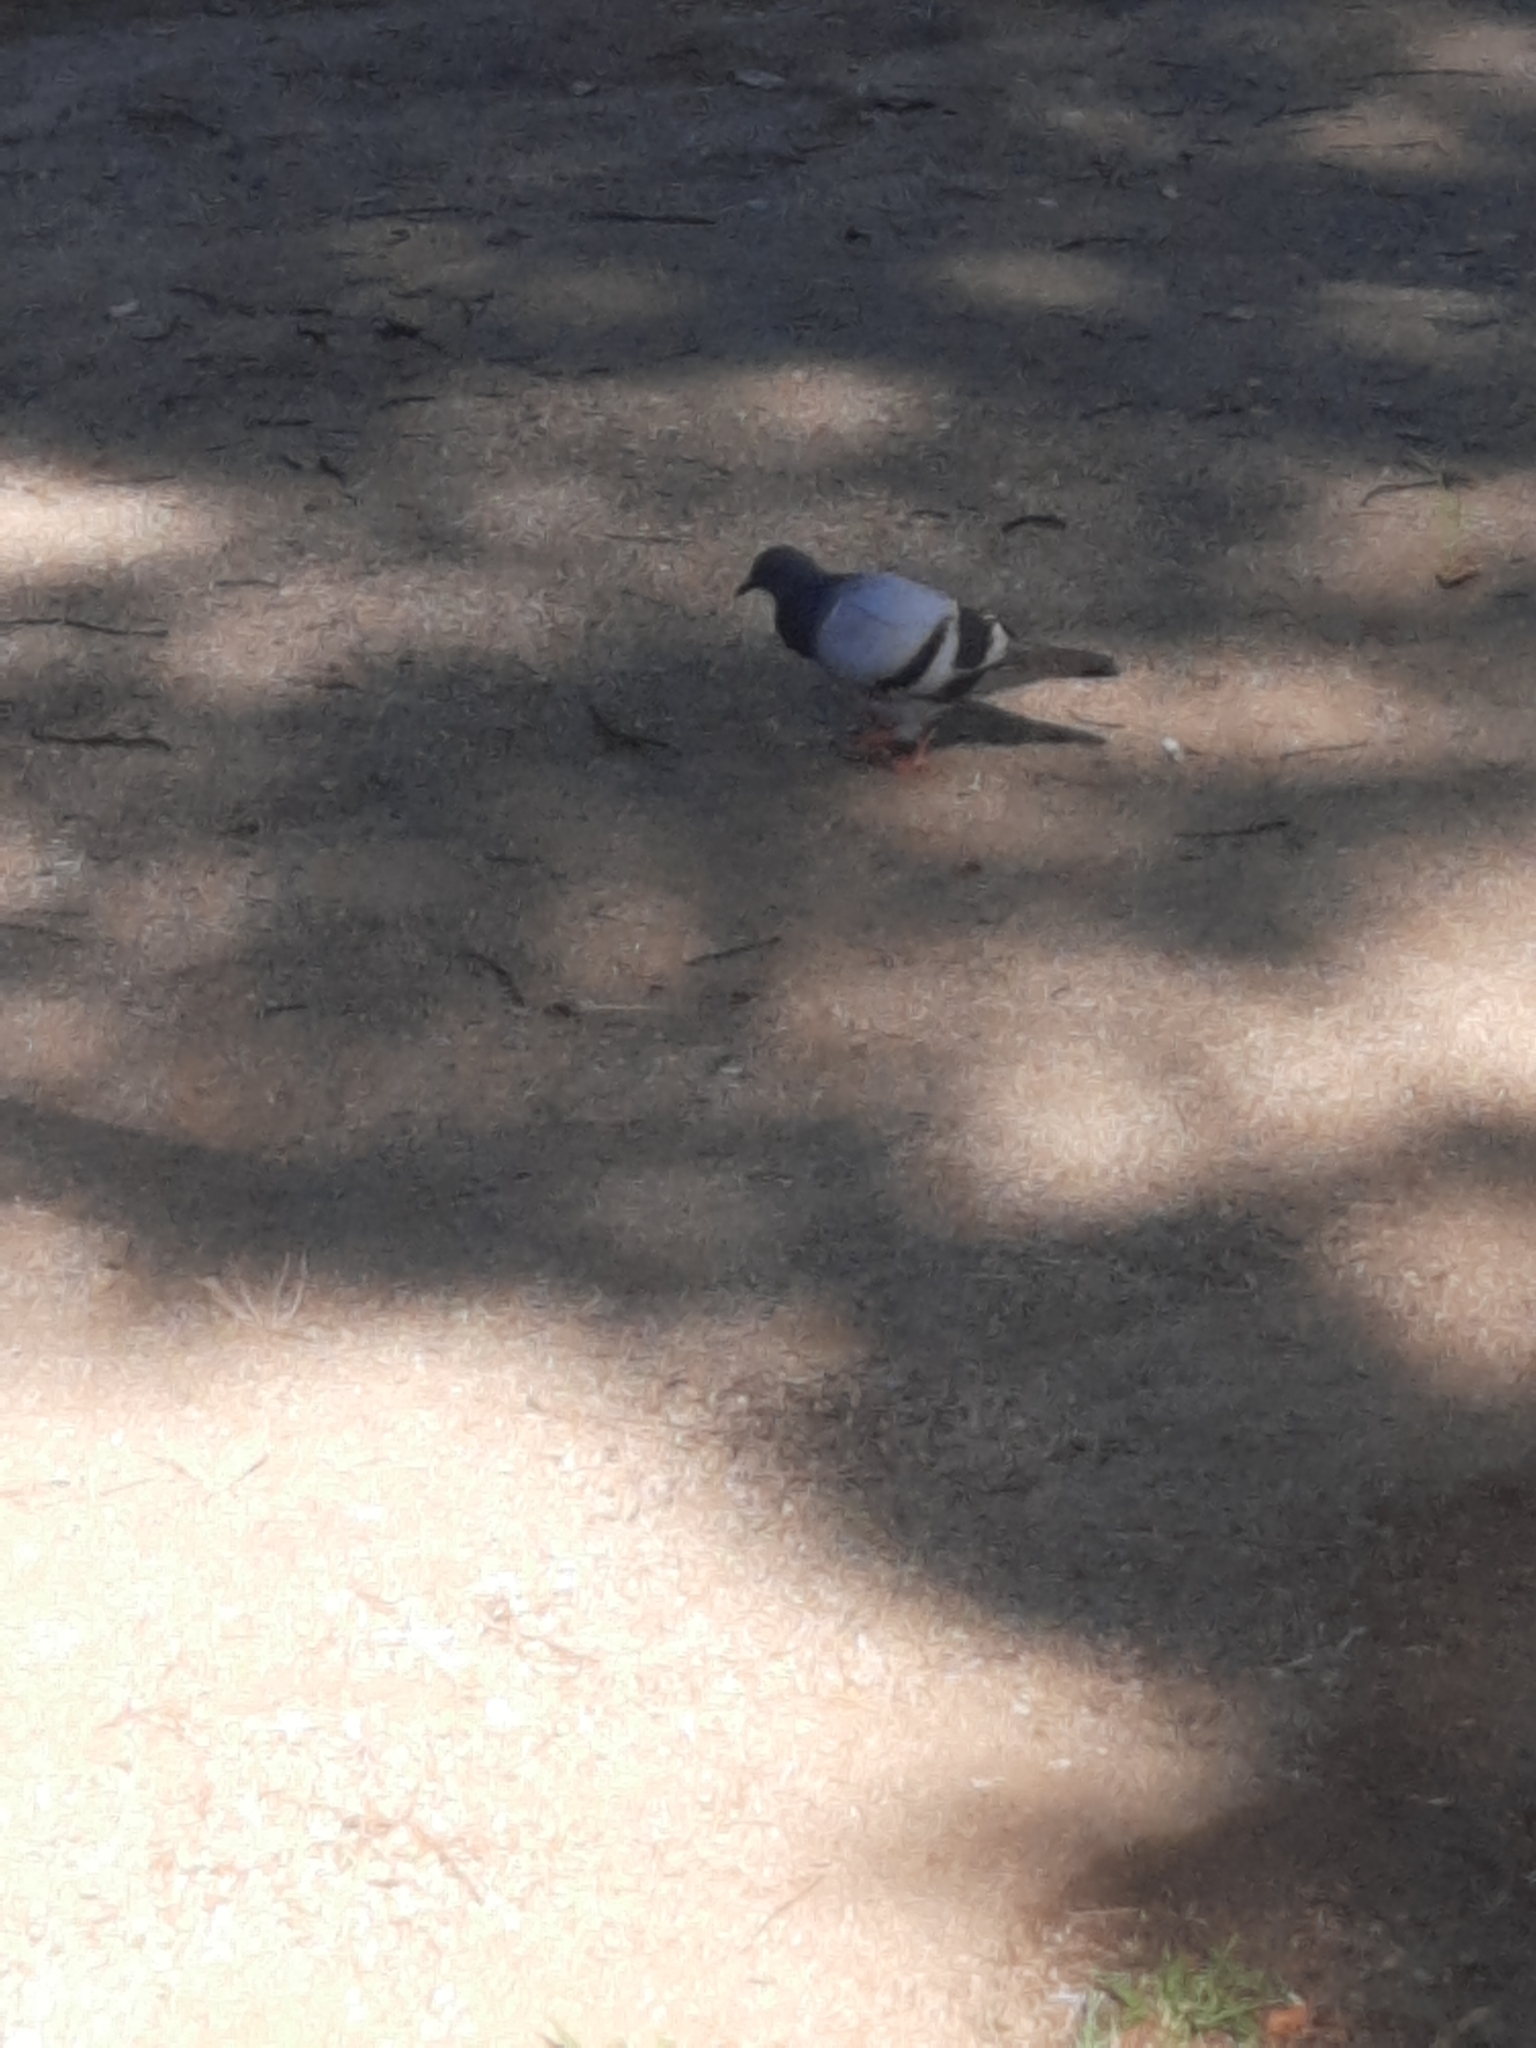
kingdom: Animalia
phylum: Chordata
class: Aves
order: Columbiformes
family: Columbidae
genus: Columba
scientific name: Columba livia
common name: Rock pigeon
